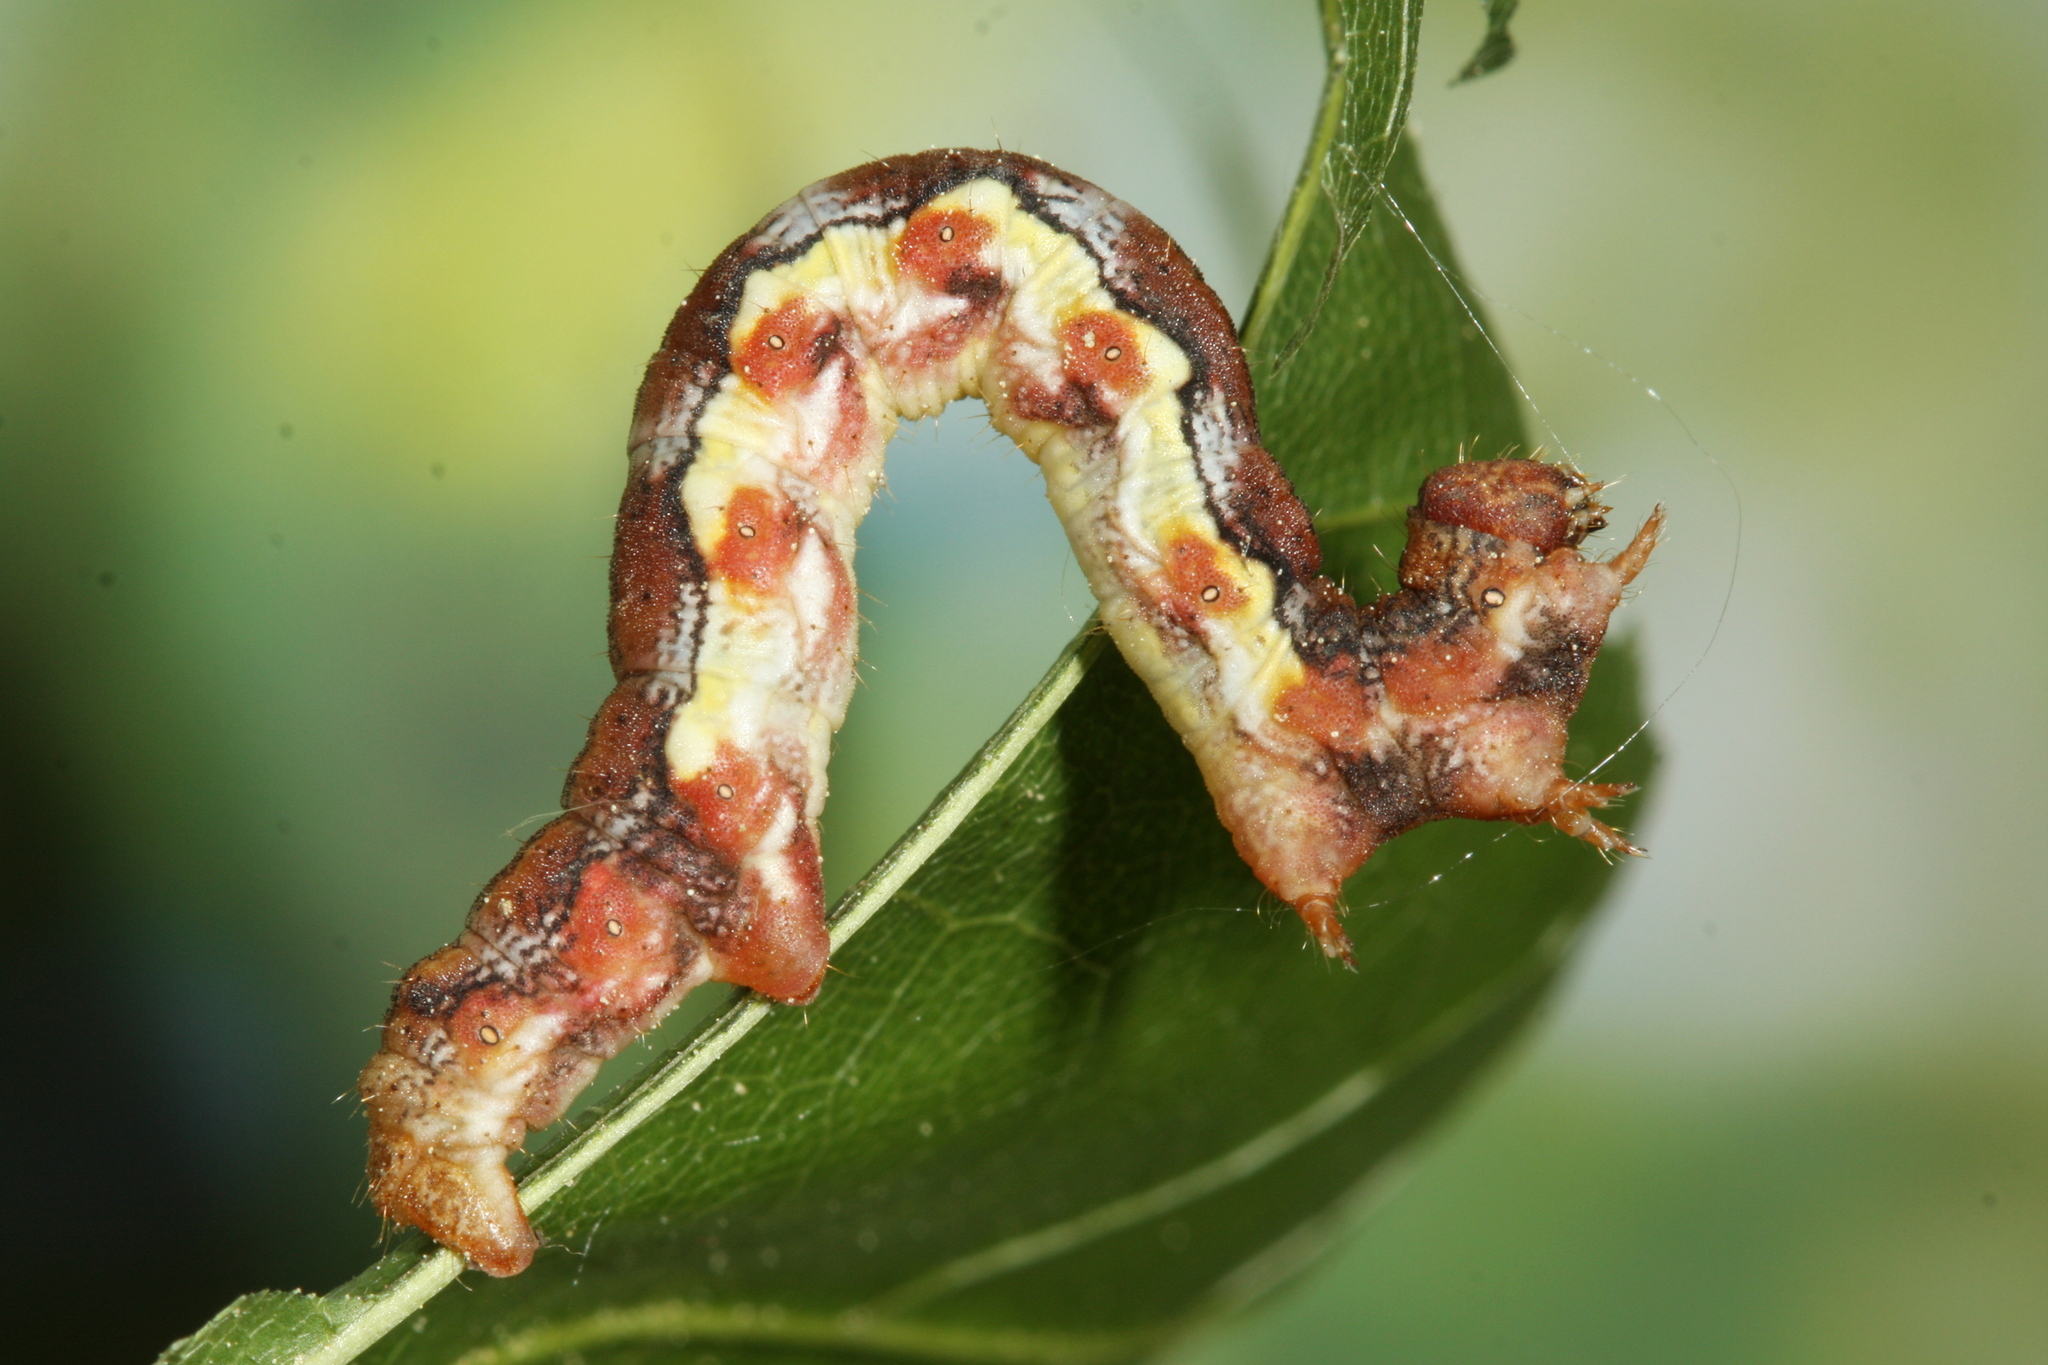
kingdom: Animalia
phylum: Arthropoda
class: Insecta
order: Lepidoptera
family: Geometridae
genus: Erannis
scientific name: Erannis defoliaria
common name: Mottled umber
